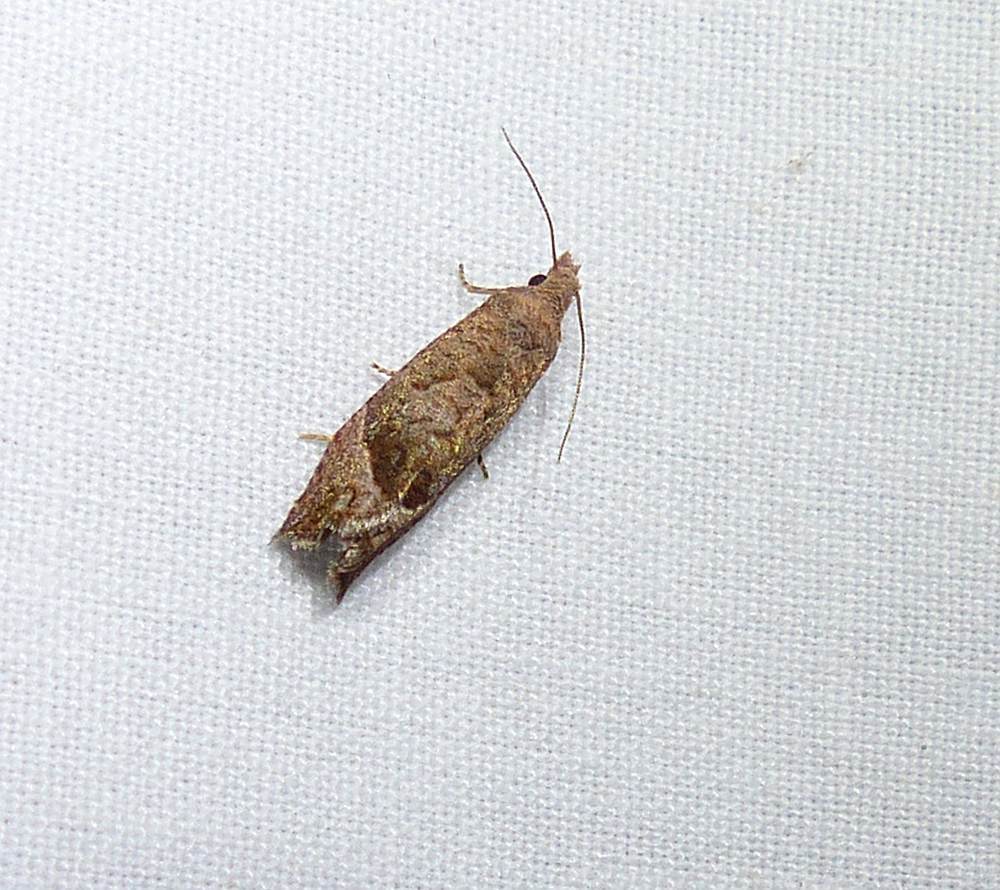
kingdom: Animalia
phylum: Arthropoda
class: Insecta
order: Lepidoptera
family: Tortricidae
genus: Pelochrista
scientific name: Pelochrista derelicta
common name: Derelict pelochrista moth
